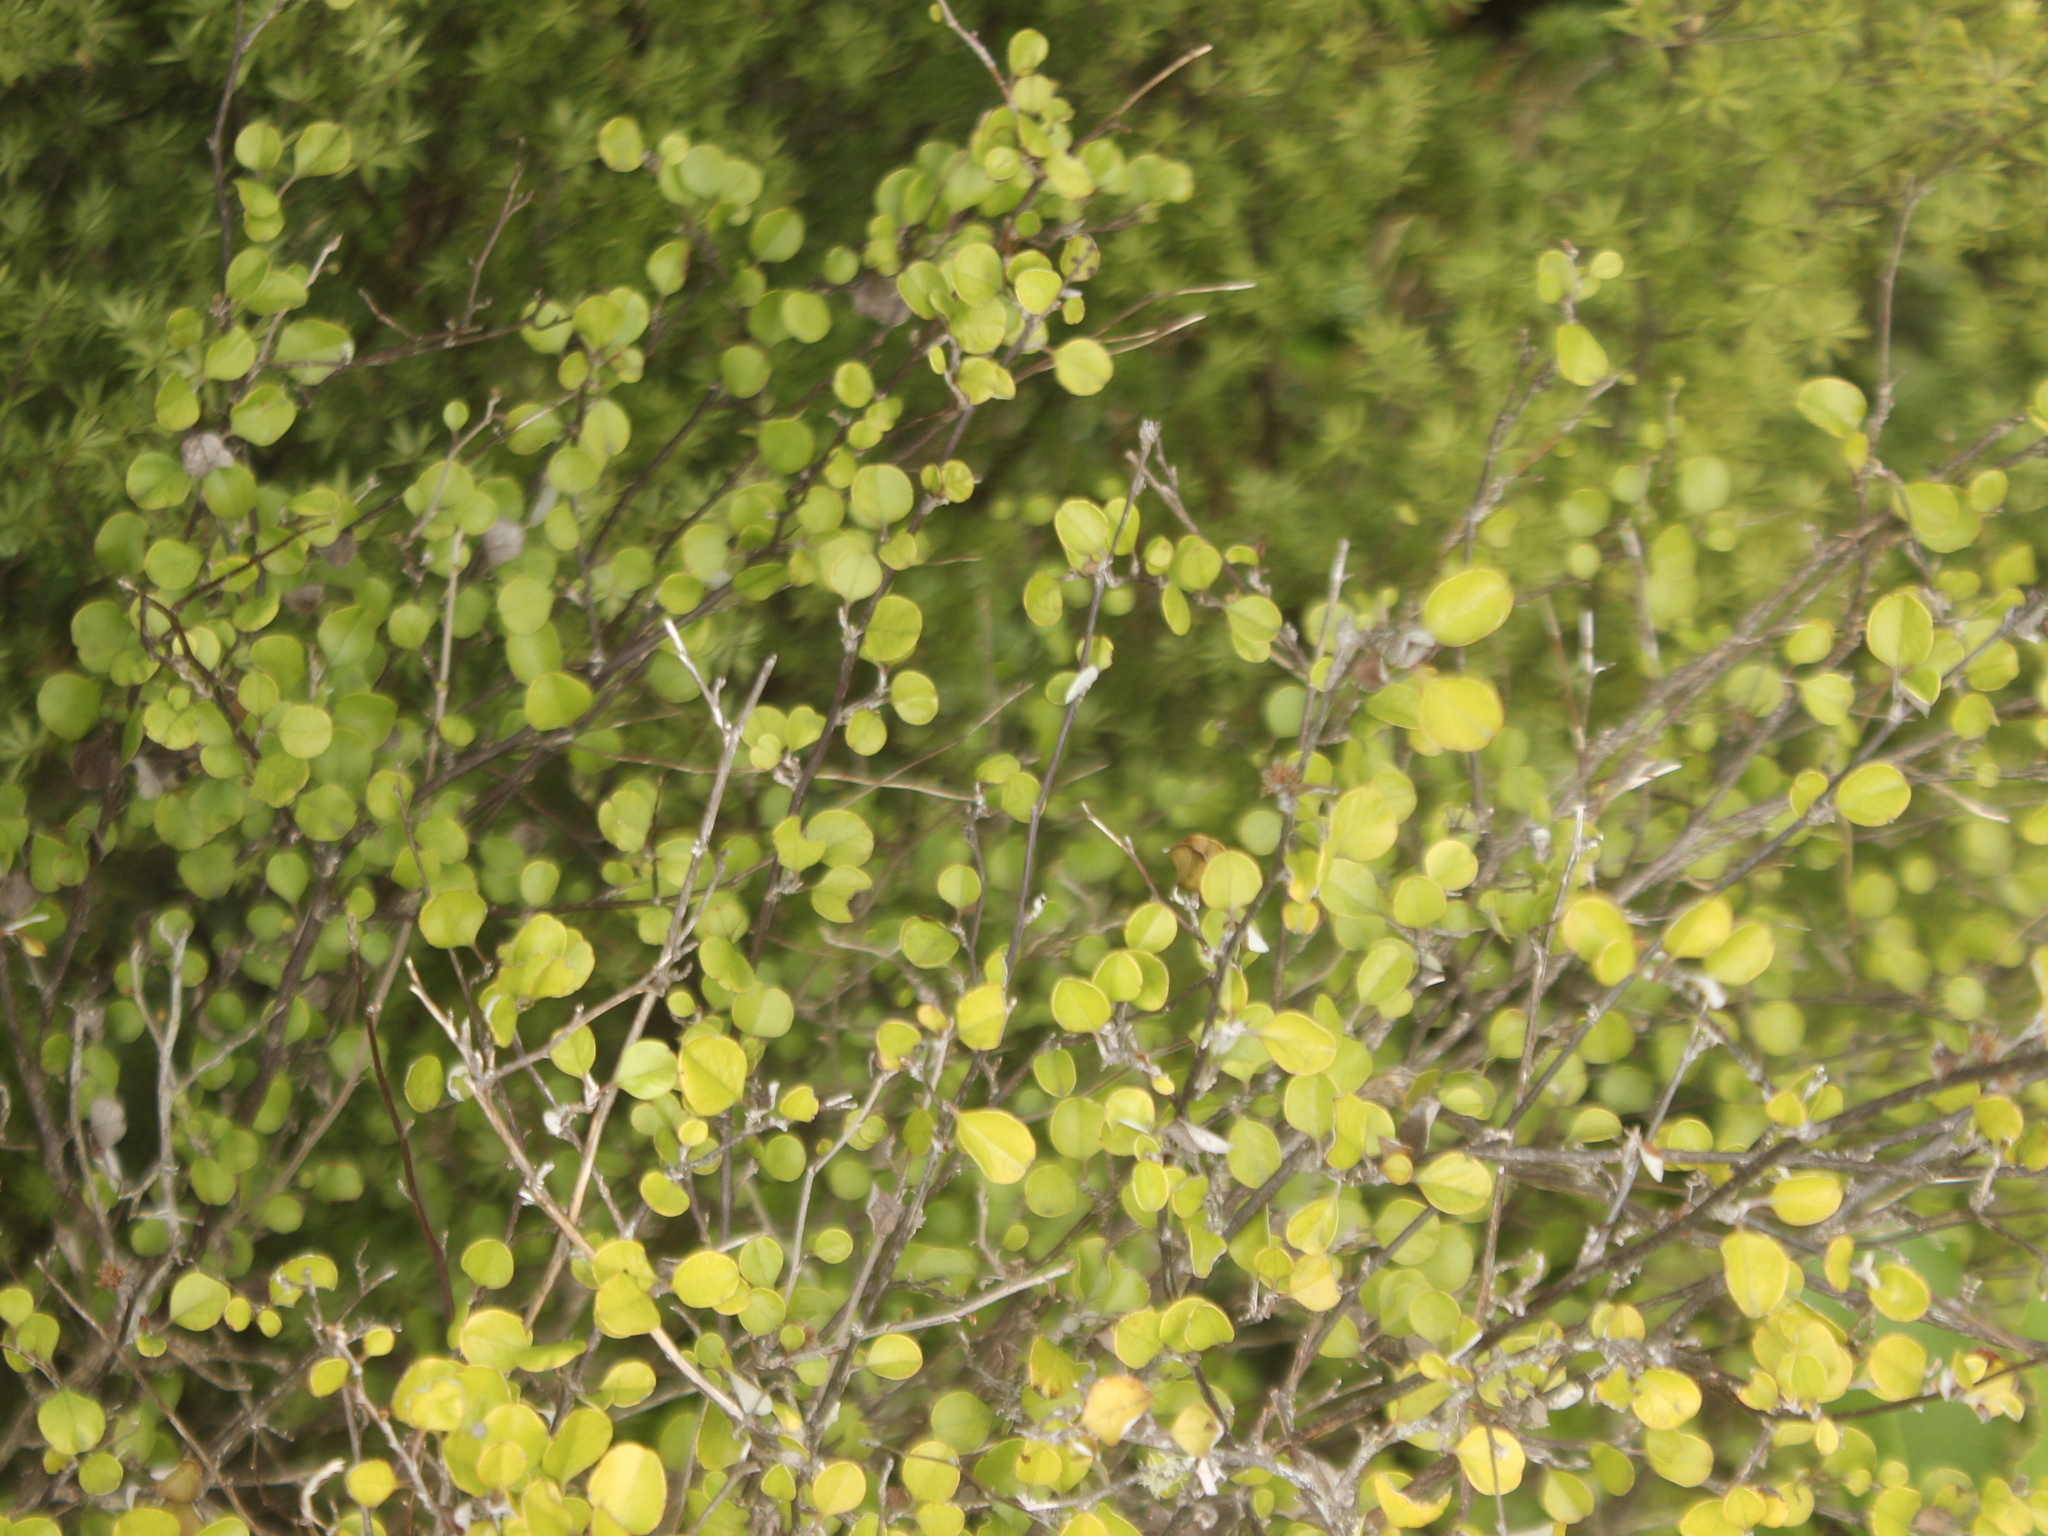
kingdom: Plantae
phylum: Tracheophyta
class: Magnoliopsida
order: Asterales
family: Asteraceae
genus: Ozothamnus
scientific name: Ozothamnus glomeratus
